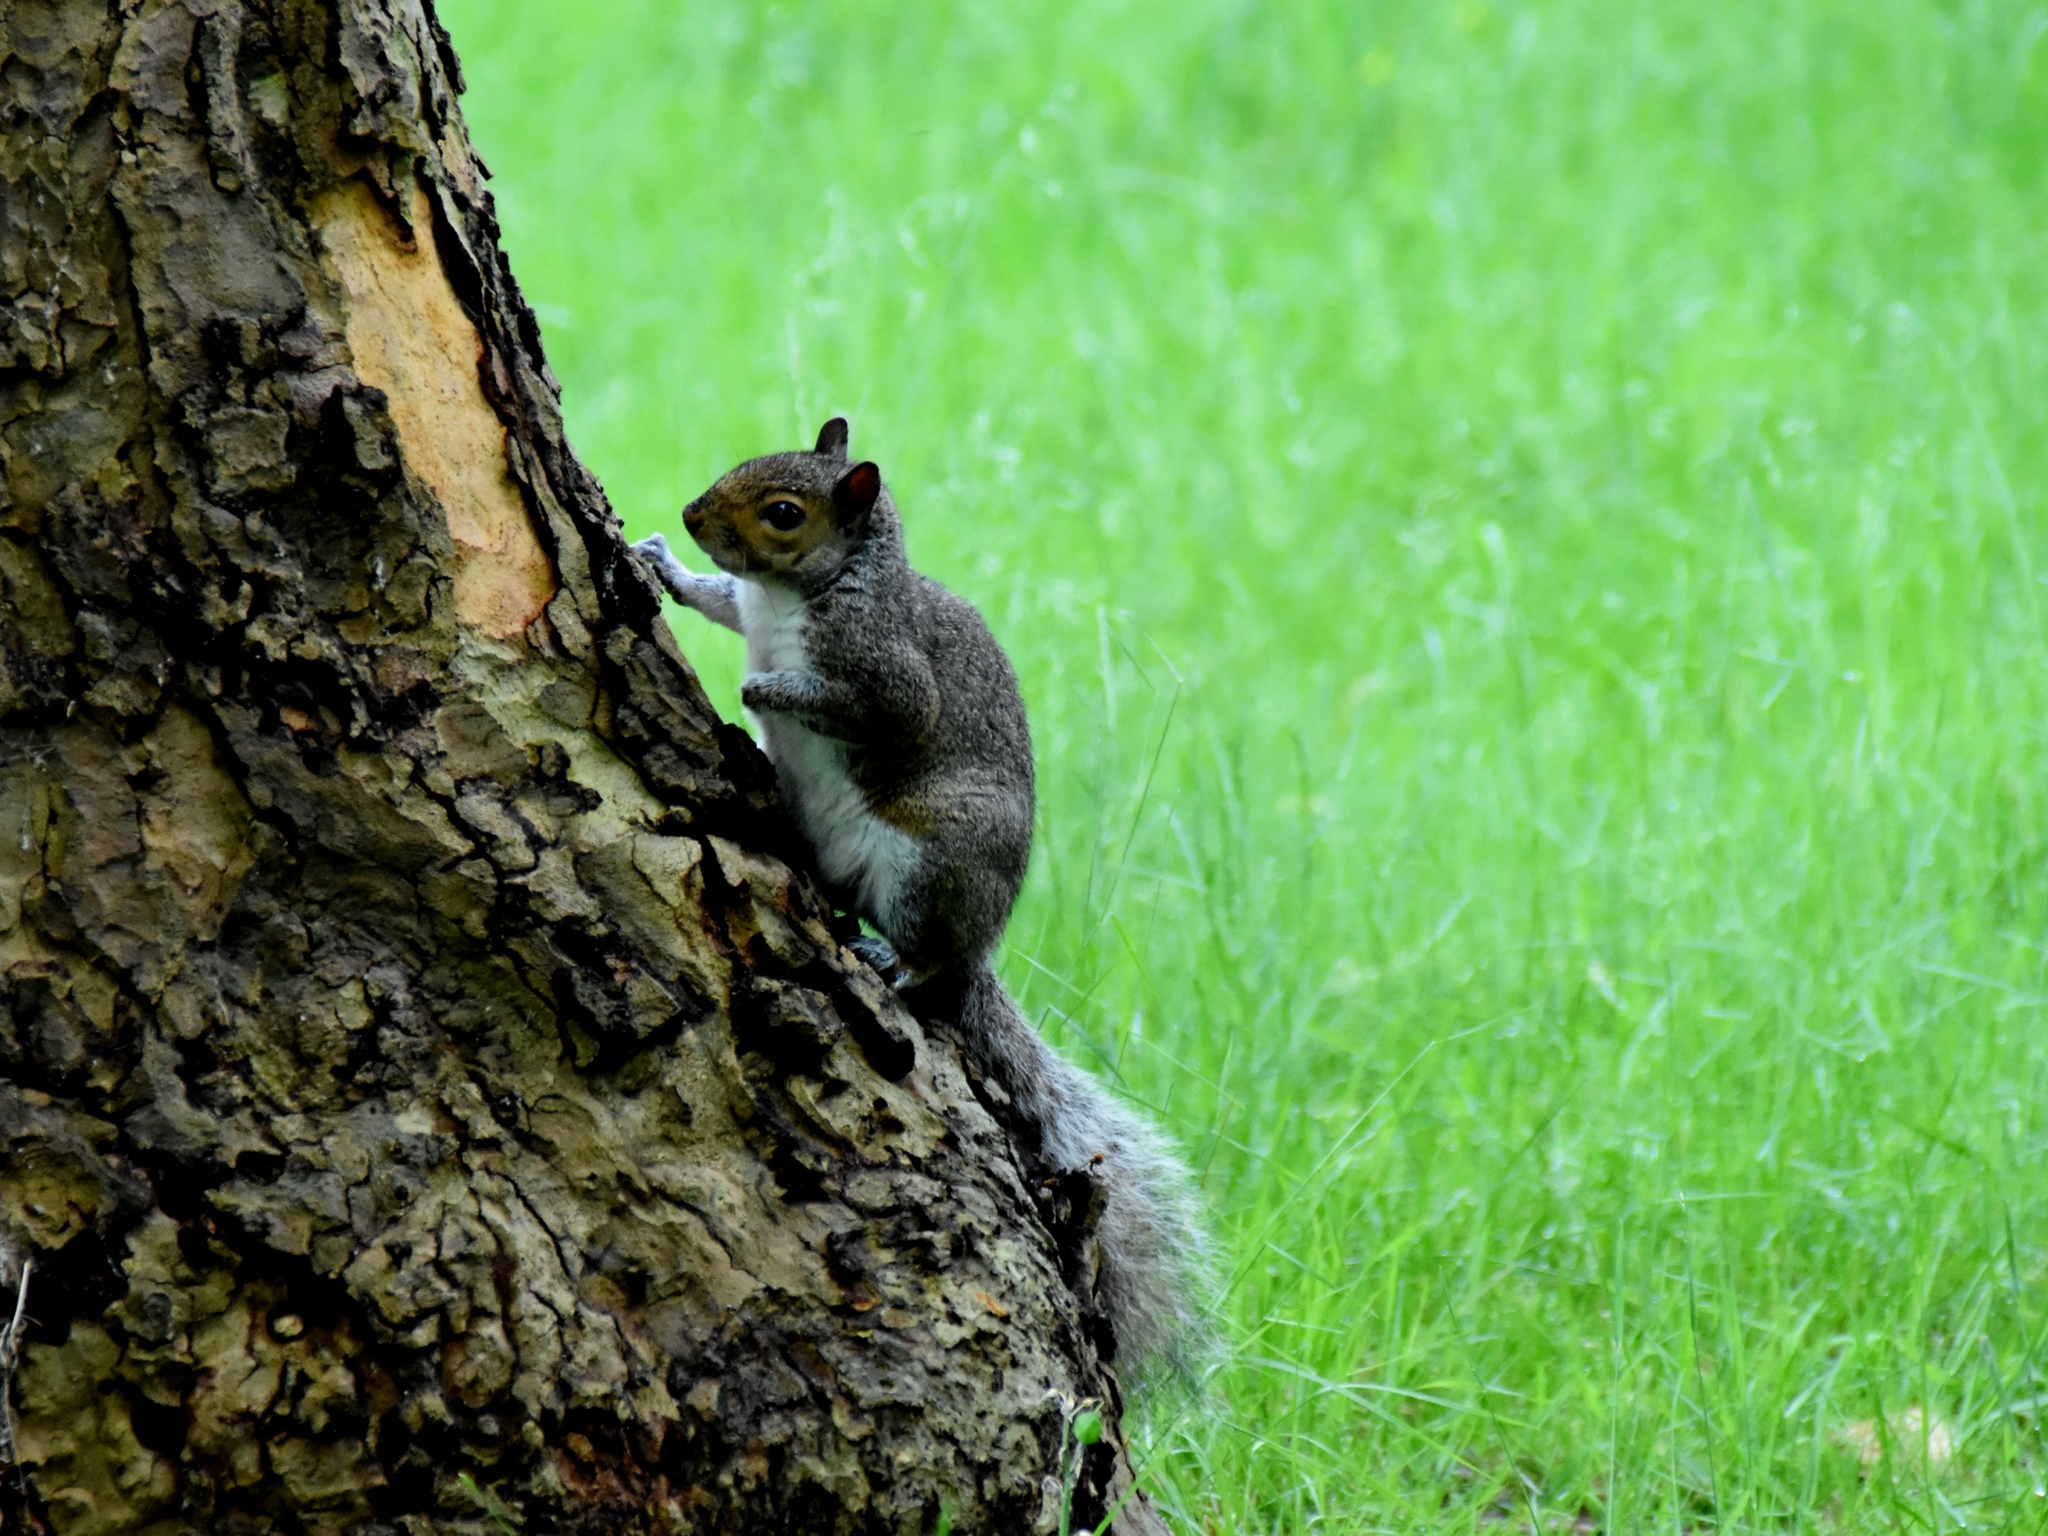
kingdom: Animalia
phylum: Chordata
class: Mammalia
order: Rodentia
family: Sciuridae
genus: Sciurus
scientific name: Sciurus carolinensis
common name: Eastern gray squirrel
